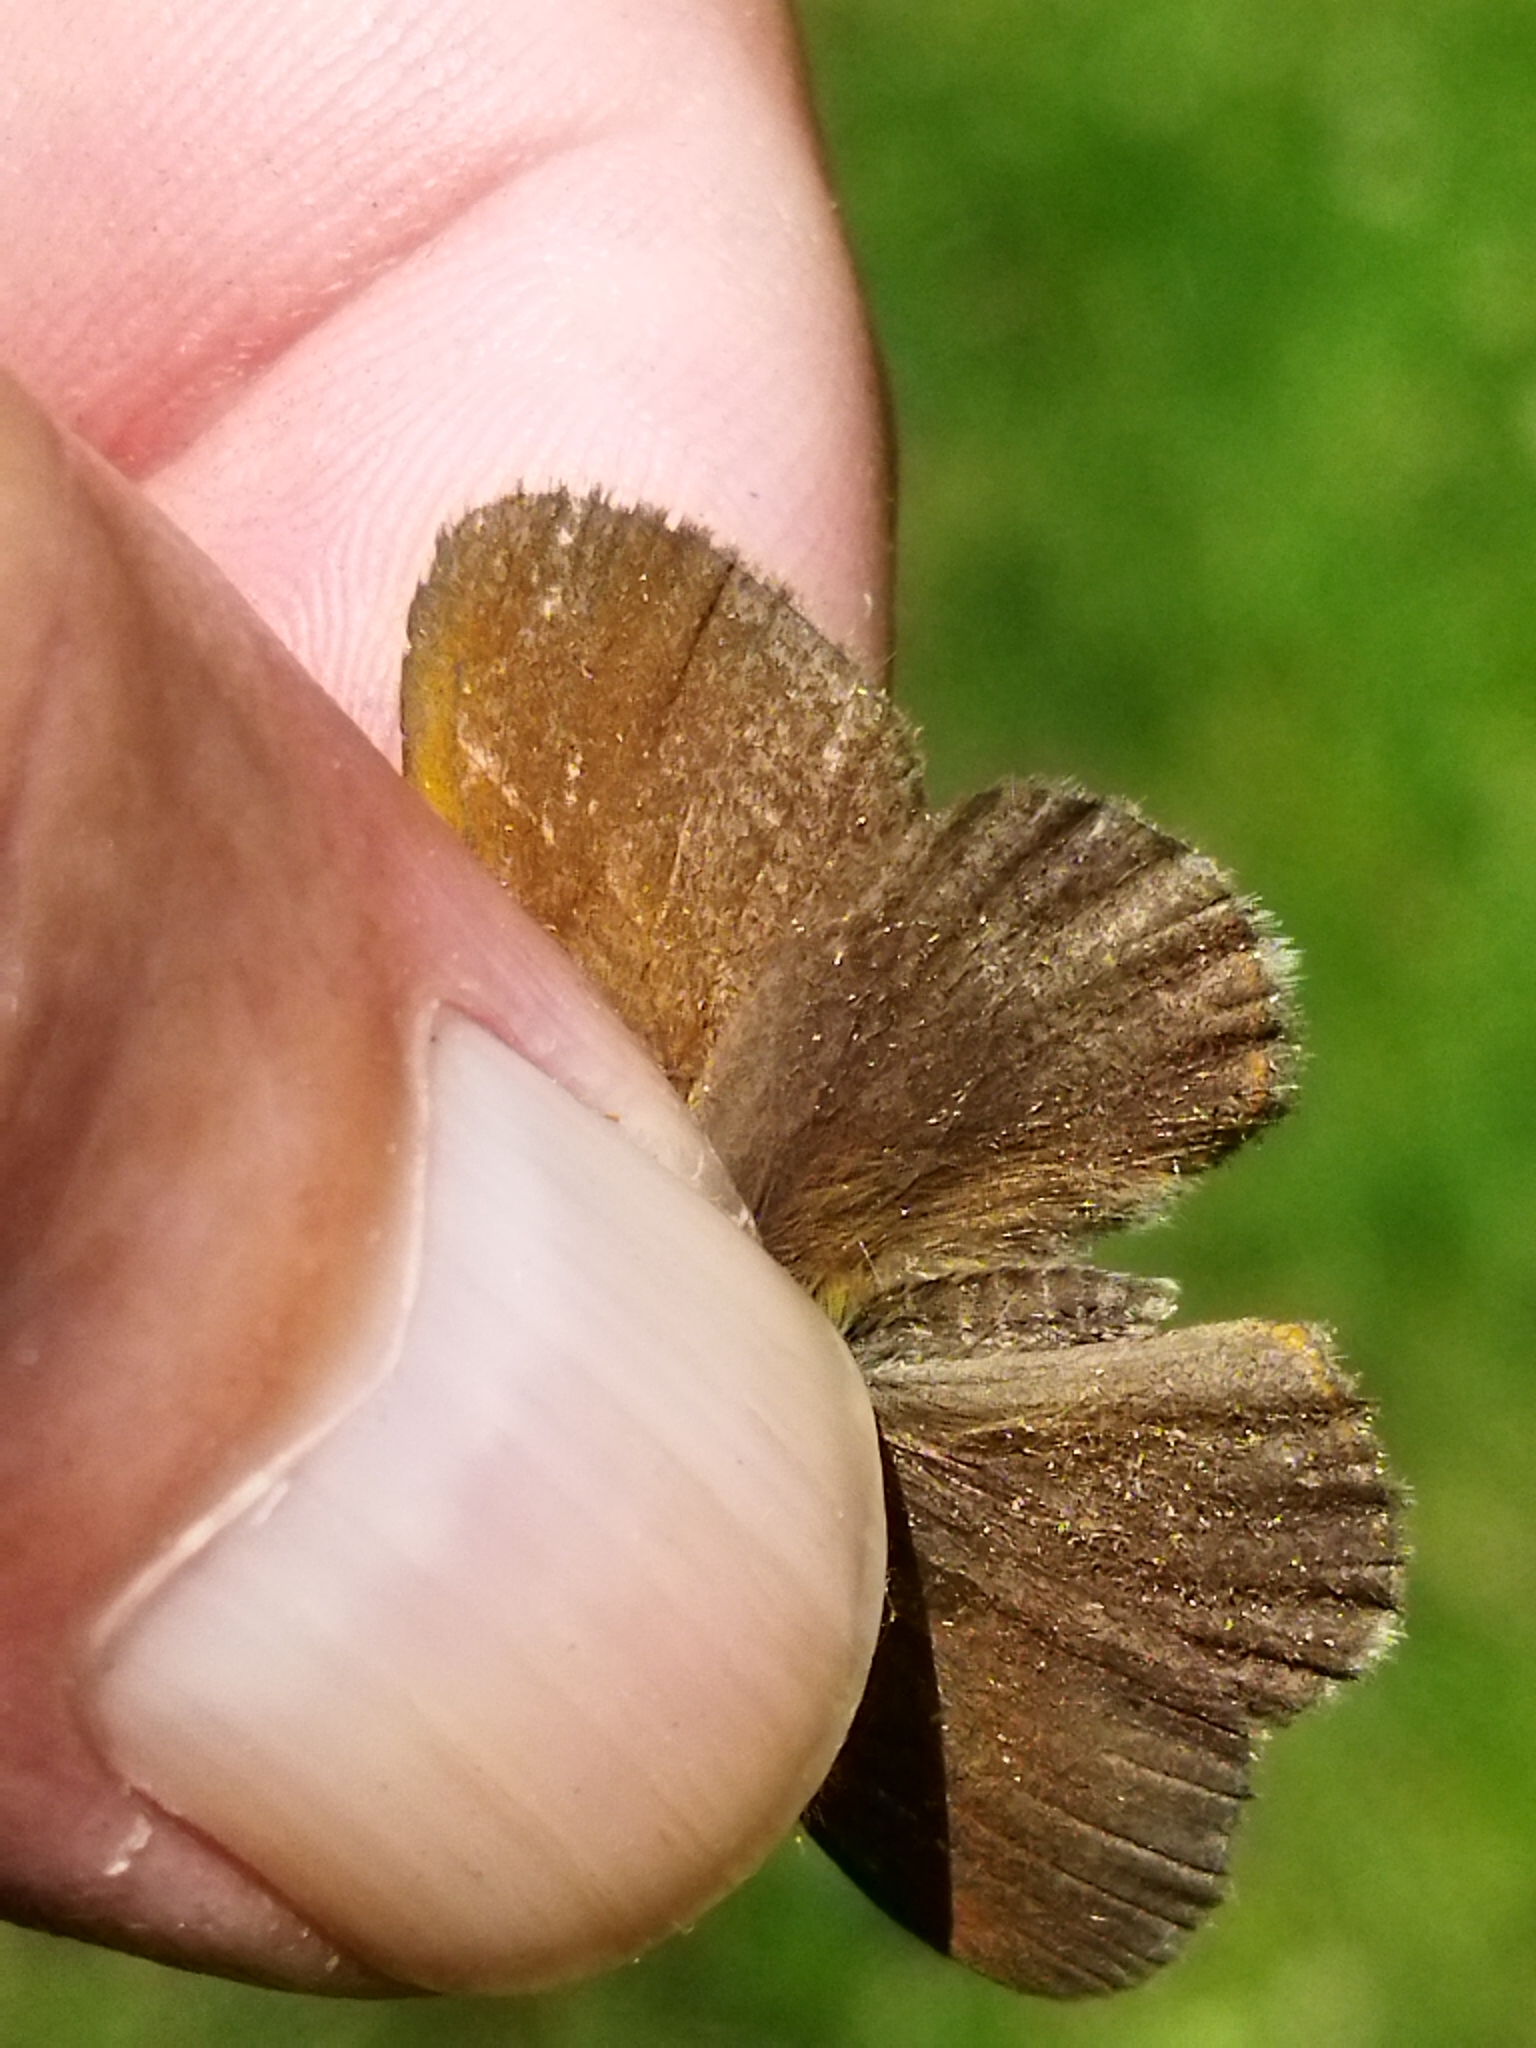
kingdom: Animalia
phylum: Arthropoda
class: Insecta
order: Lepidoptera
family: Nymphalidae
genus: Coenonympha
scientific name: Coenonympha iphis
